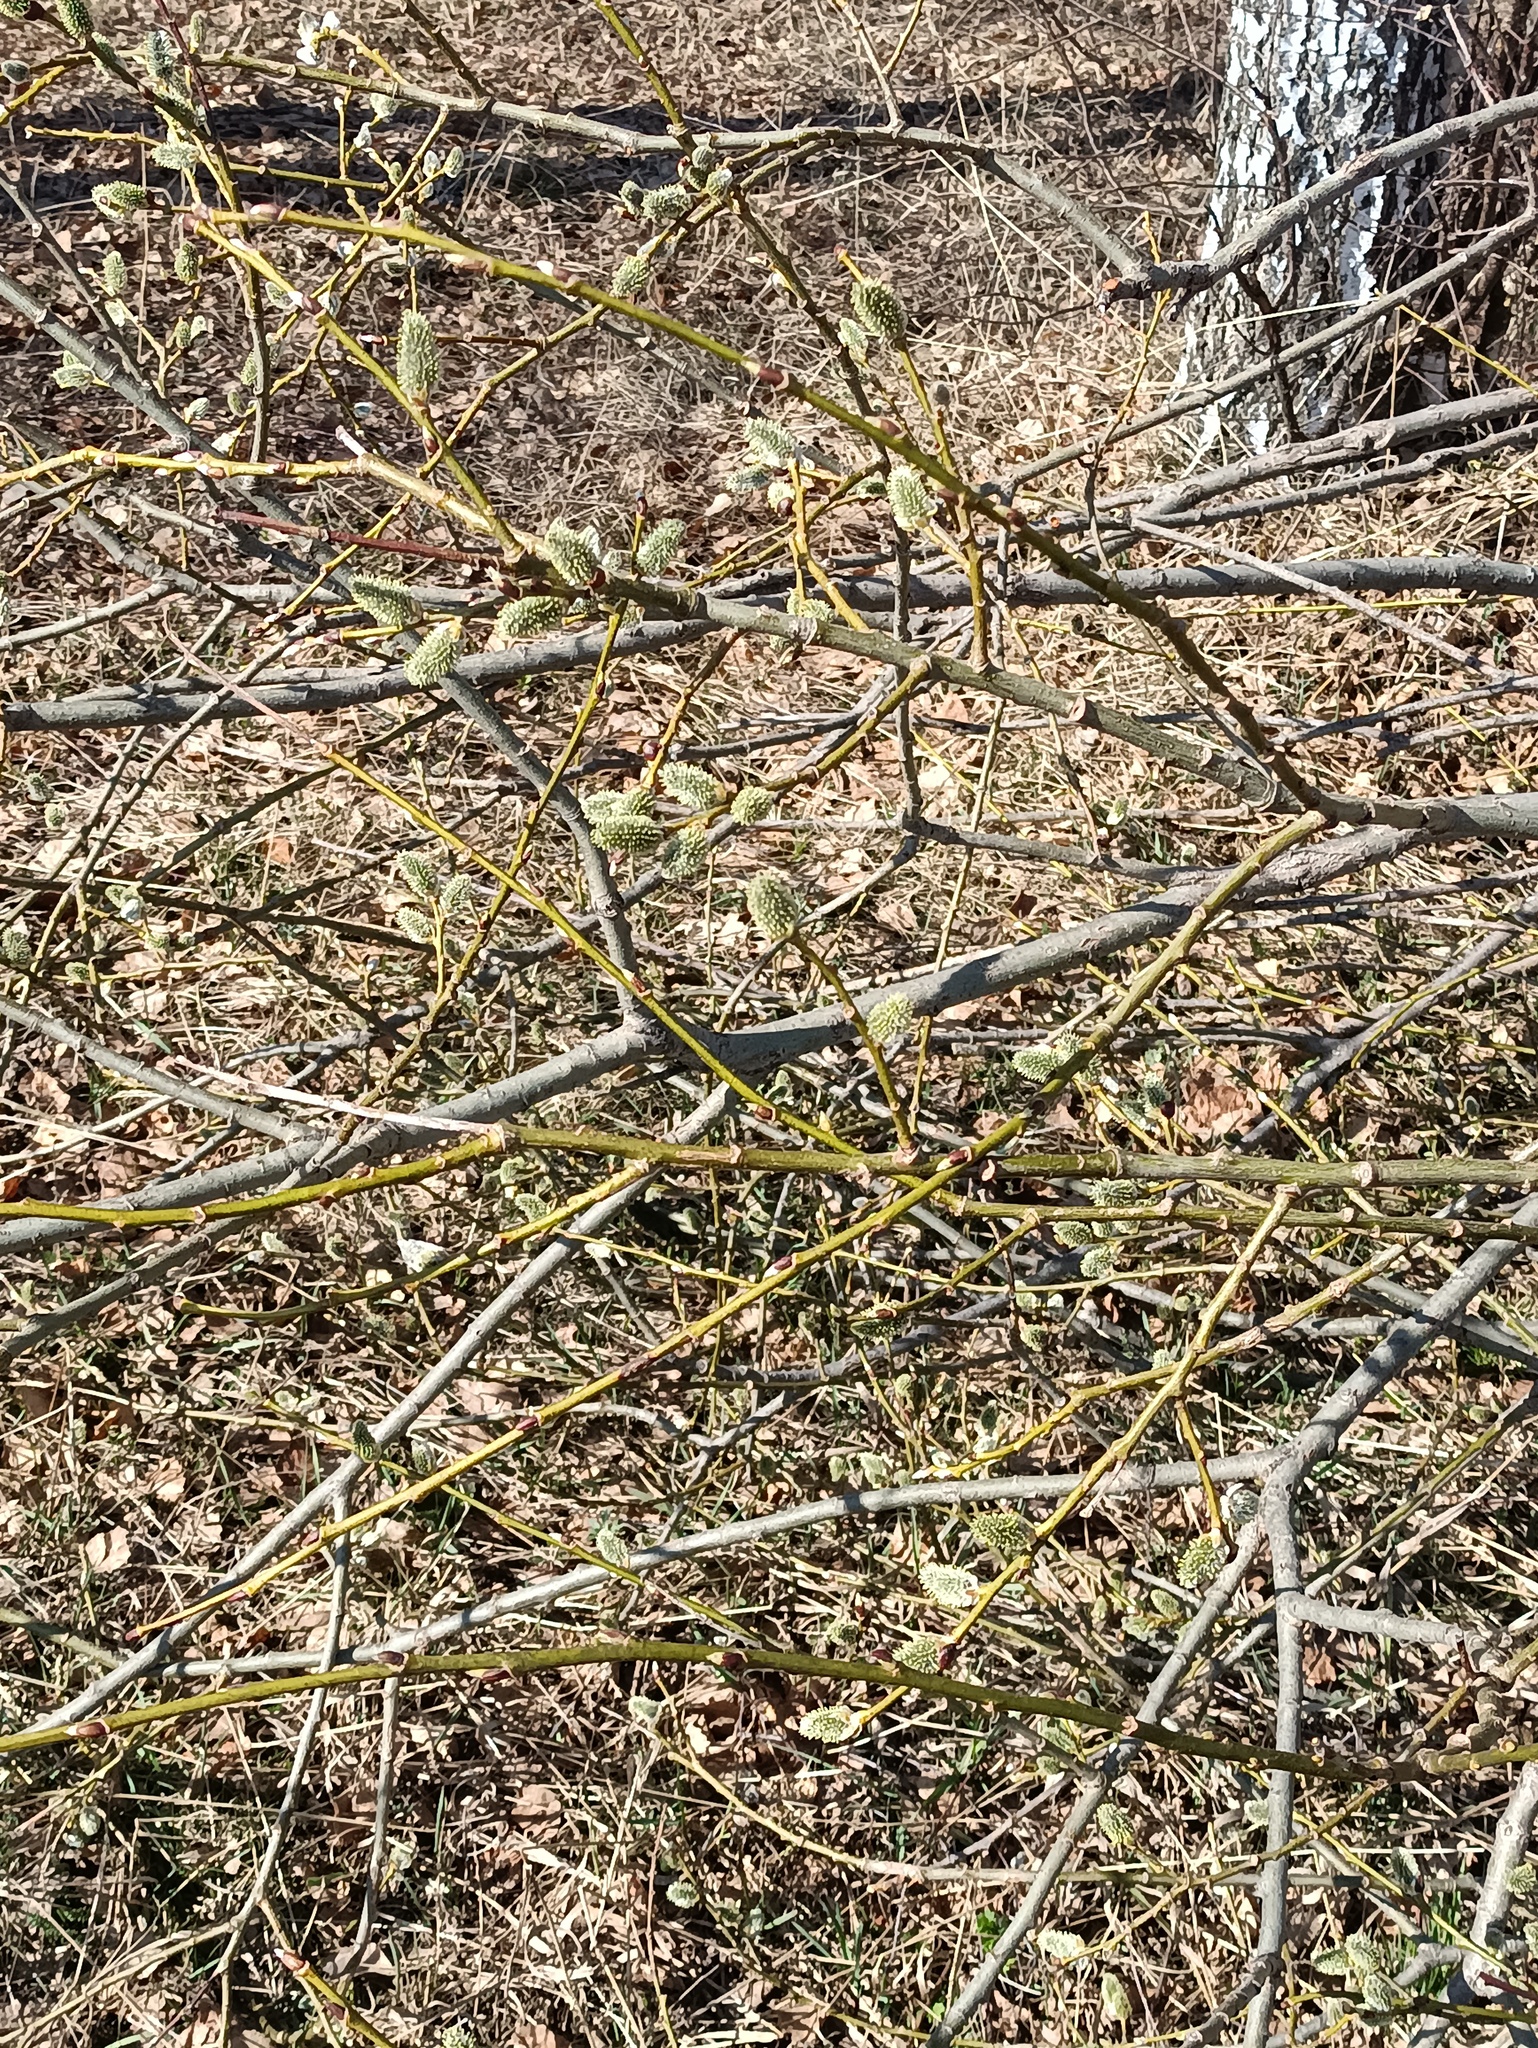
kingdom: Plantae
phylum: Tracheophyta
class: Magnoliopsida
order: Malpighiales
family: Salicaceae
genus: Salix
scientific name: Salix caprea
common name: Goat willow
